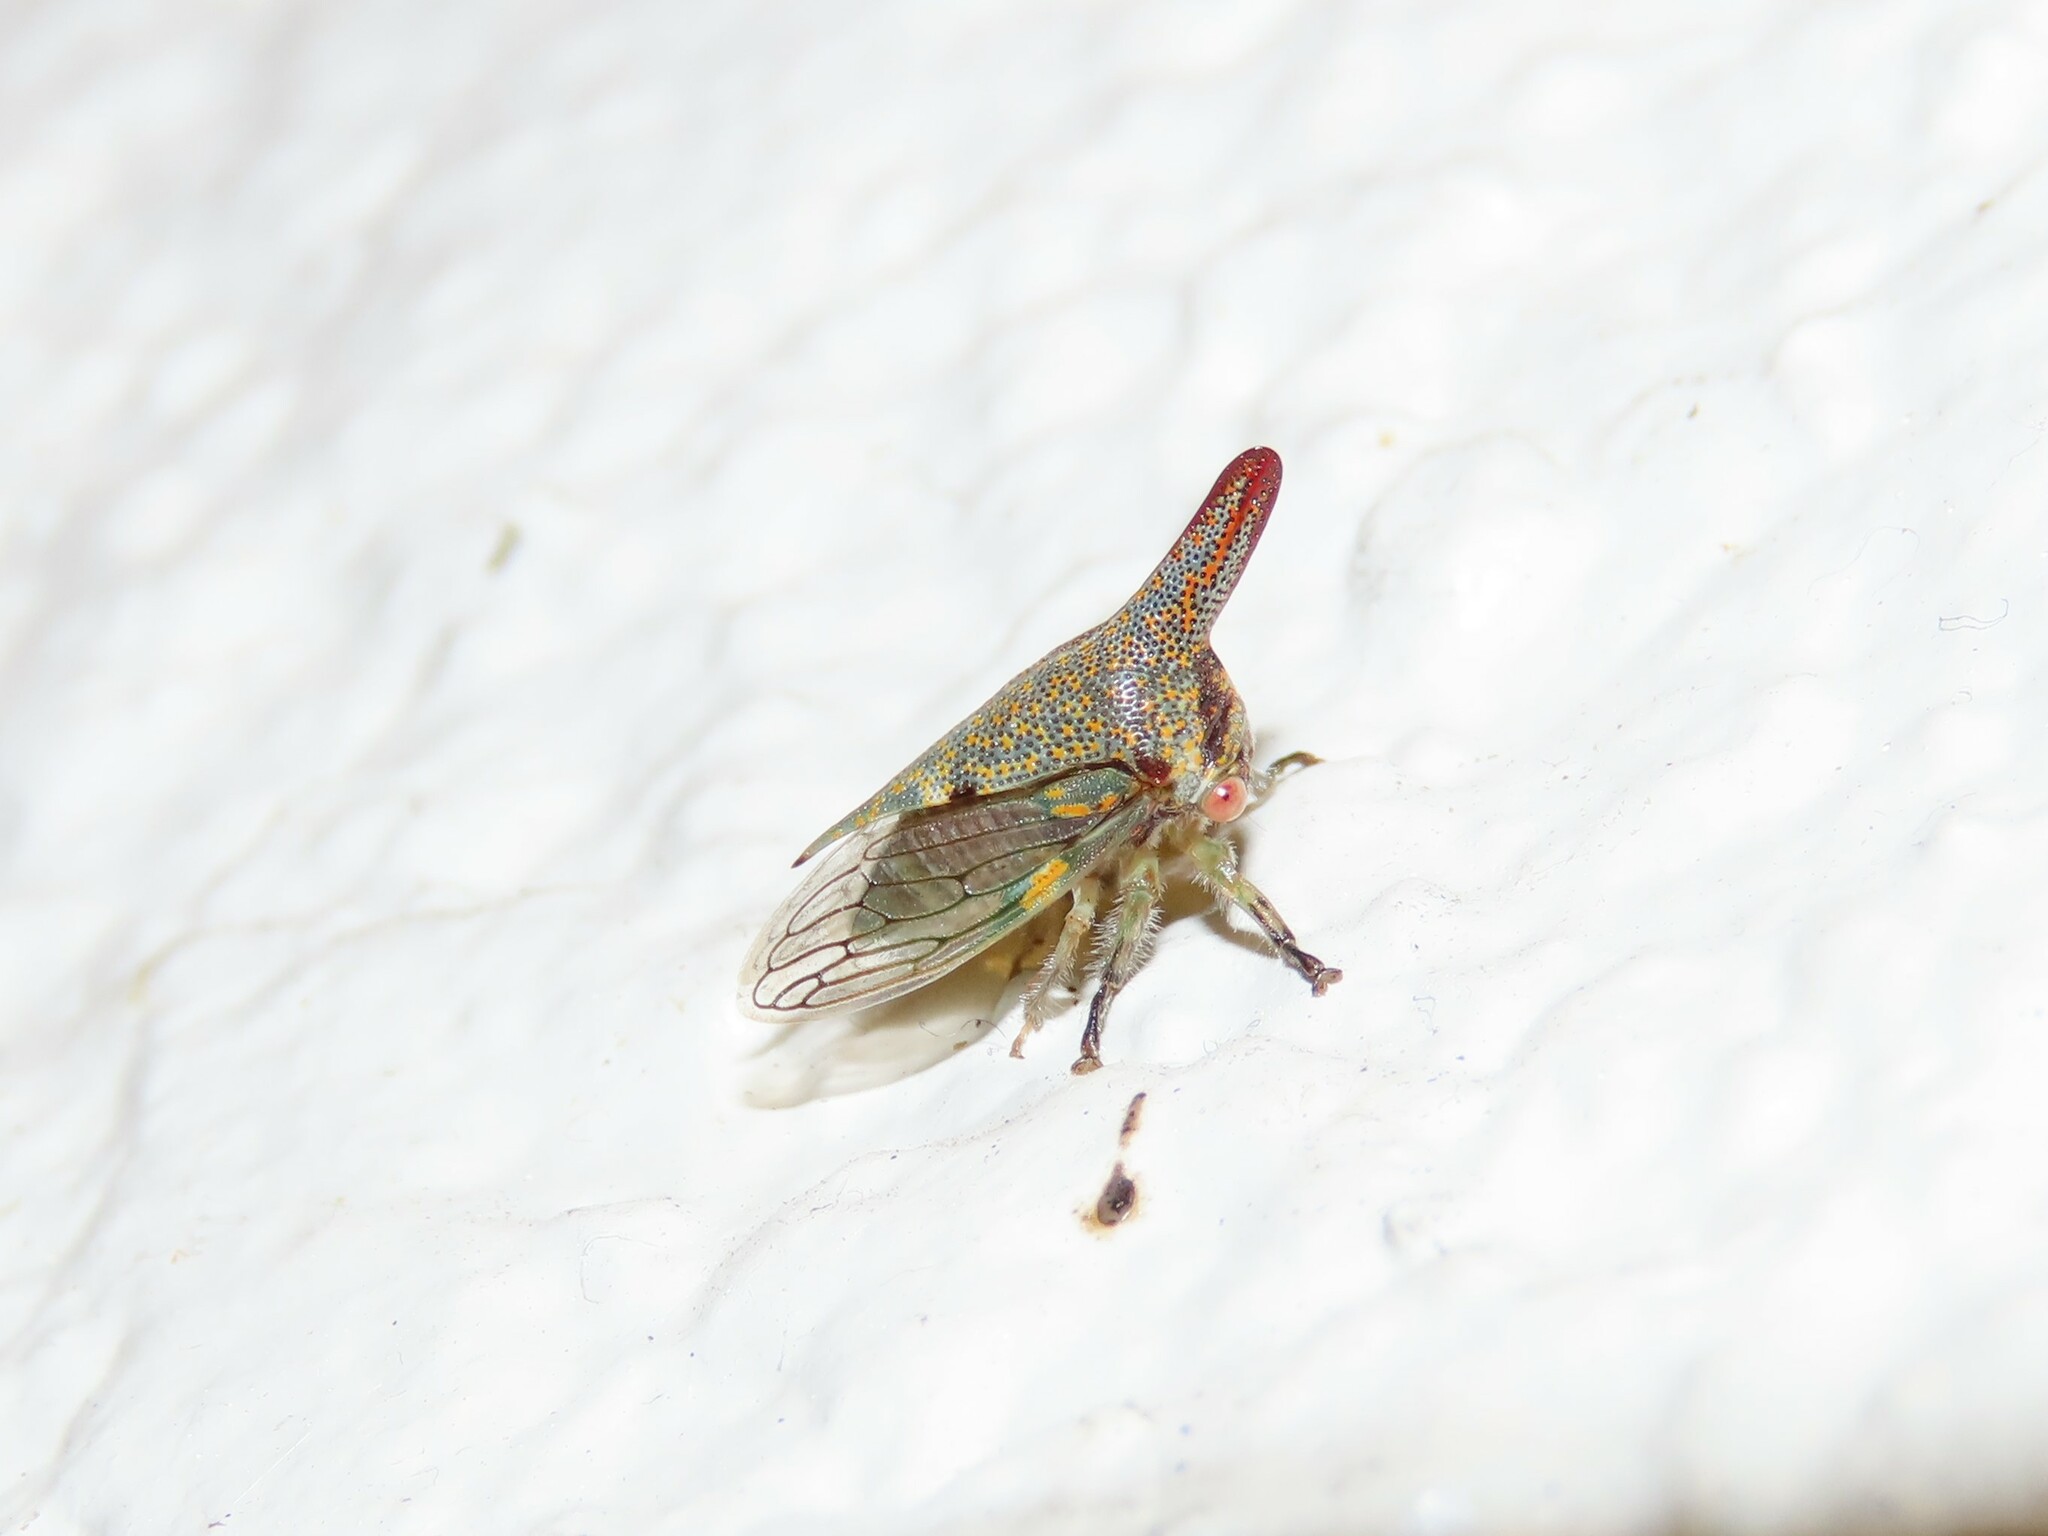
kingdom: Animalia
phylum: Arthropoda
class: Insecta
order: Hemiptera
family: Membracidae
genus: Platycotis
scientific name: Platycotis vittatus
